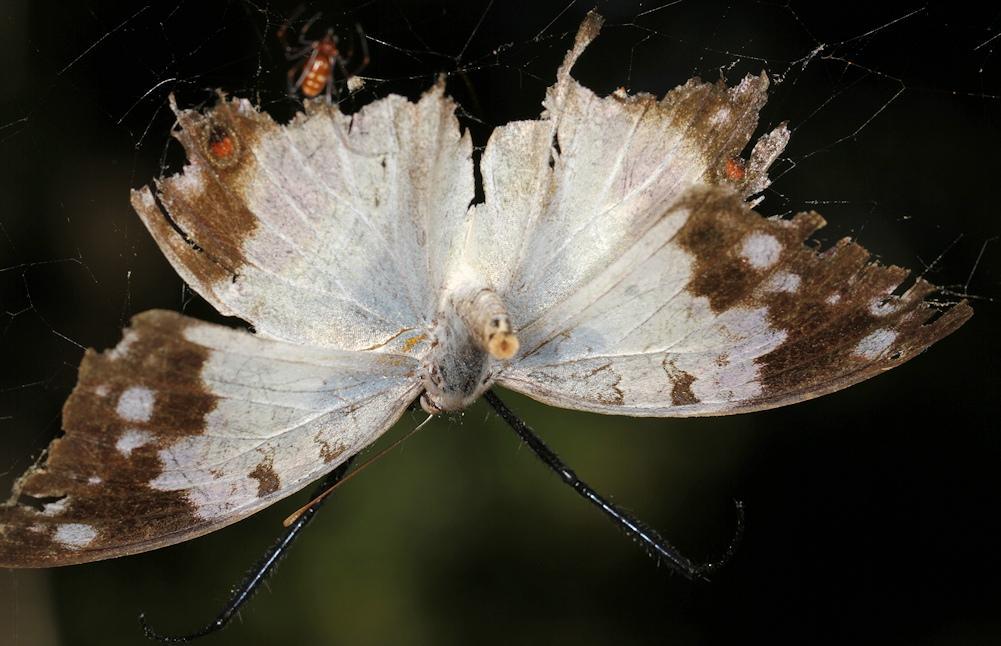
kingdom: Animalia
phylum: Arthropoda
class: Insecta
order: Lepidoptera
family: Nymphalidae
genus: Salamis
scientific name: Salamis
